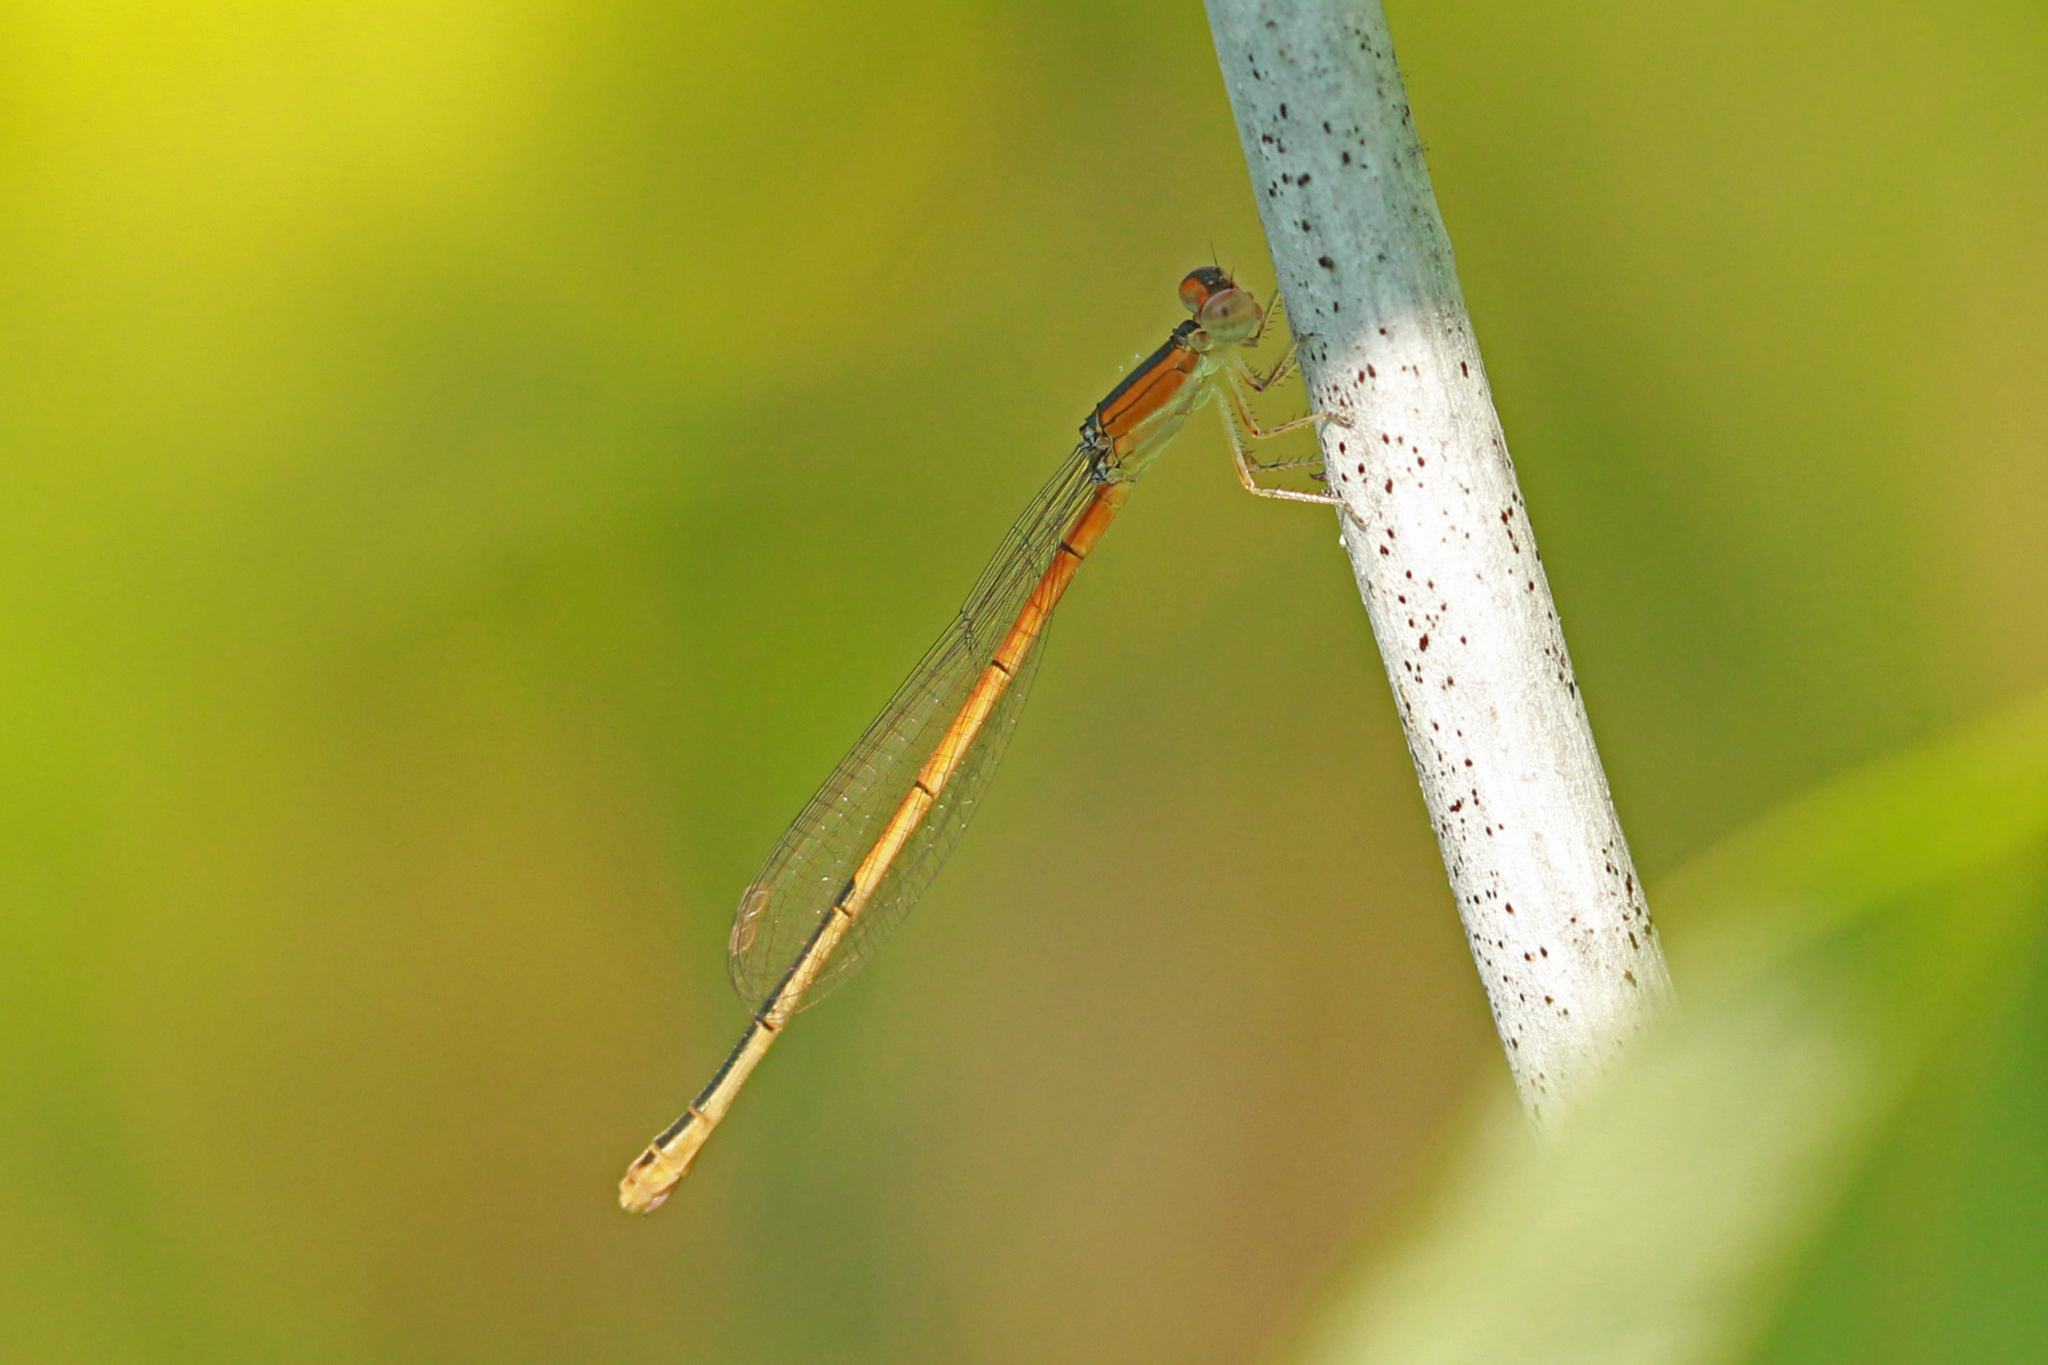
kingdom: Animalia
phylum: Arthropoda
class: Insecta
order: Odonata
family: Coenagrionidae
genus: Ischnura
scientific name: Ischnura hastata
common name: Citrine forktail
